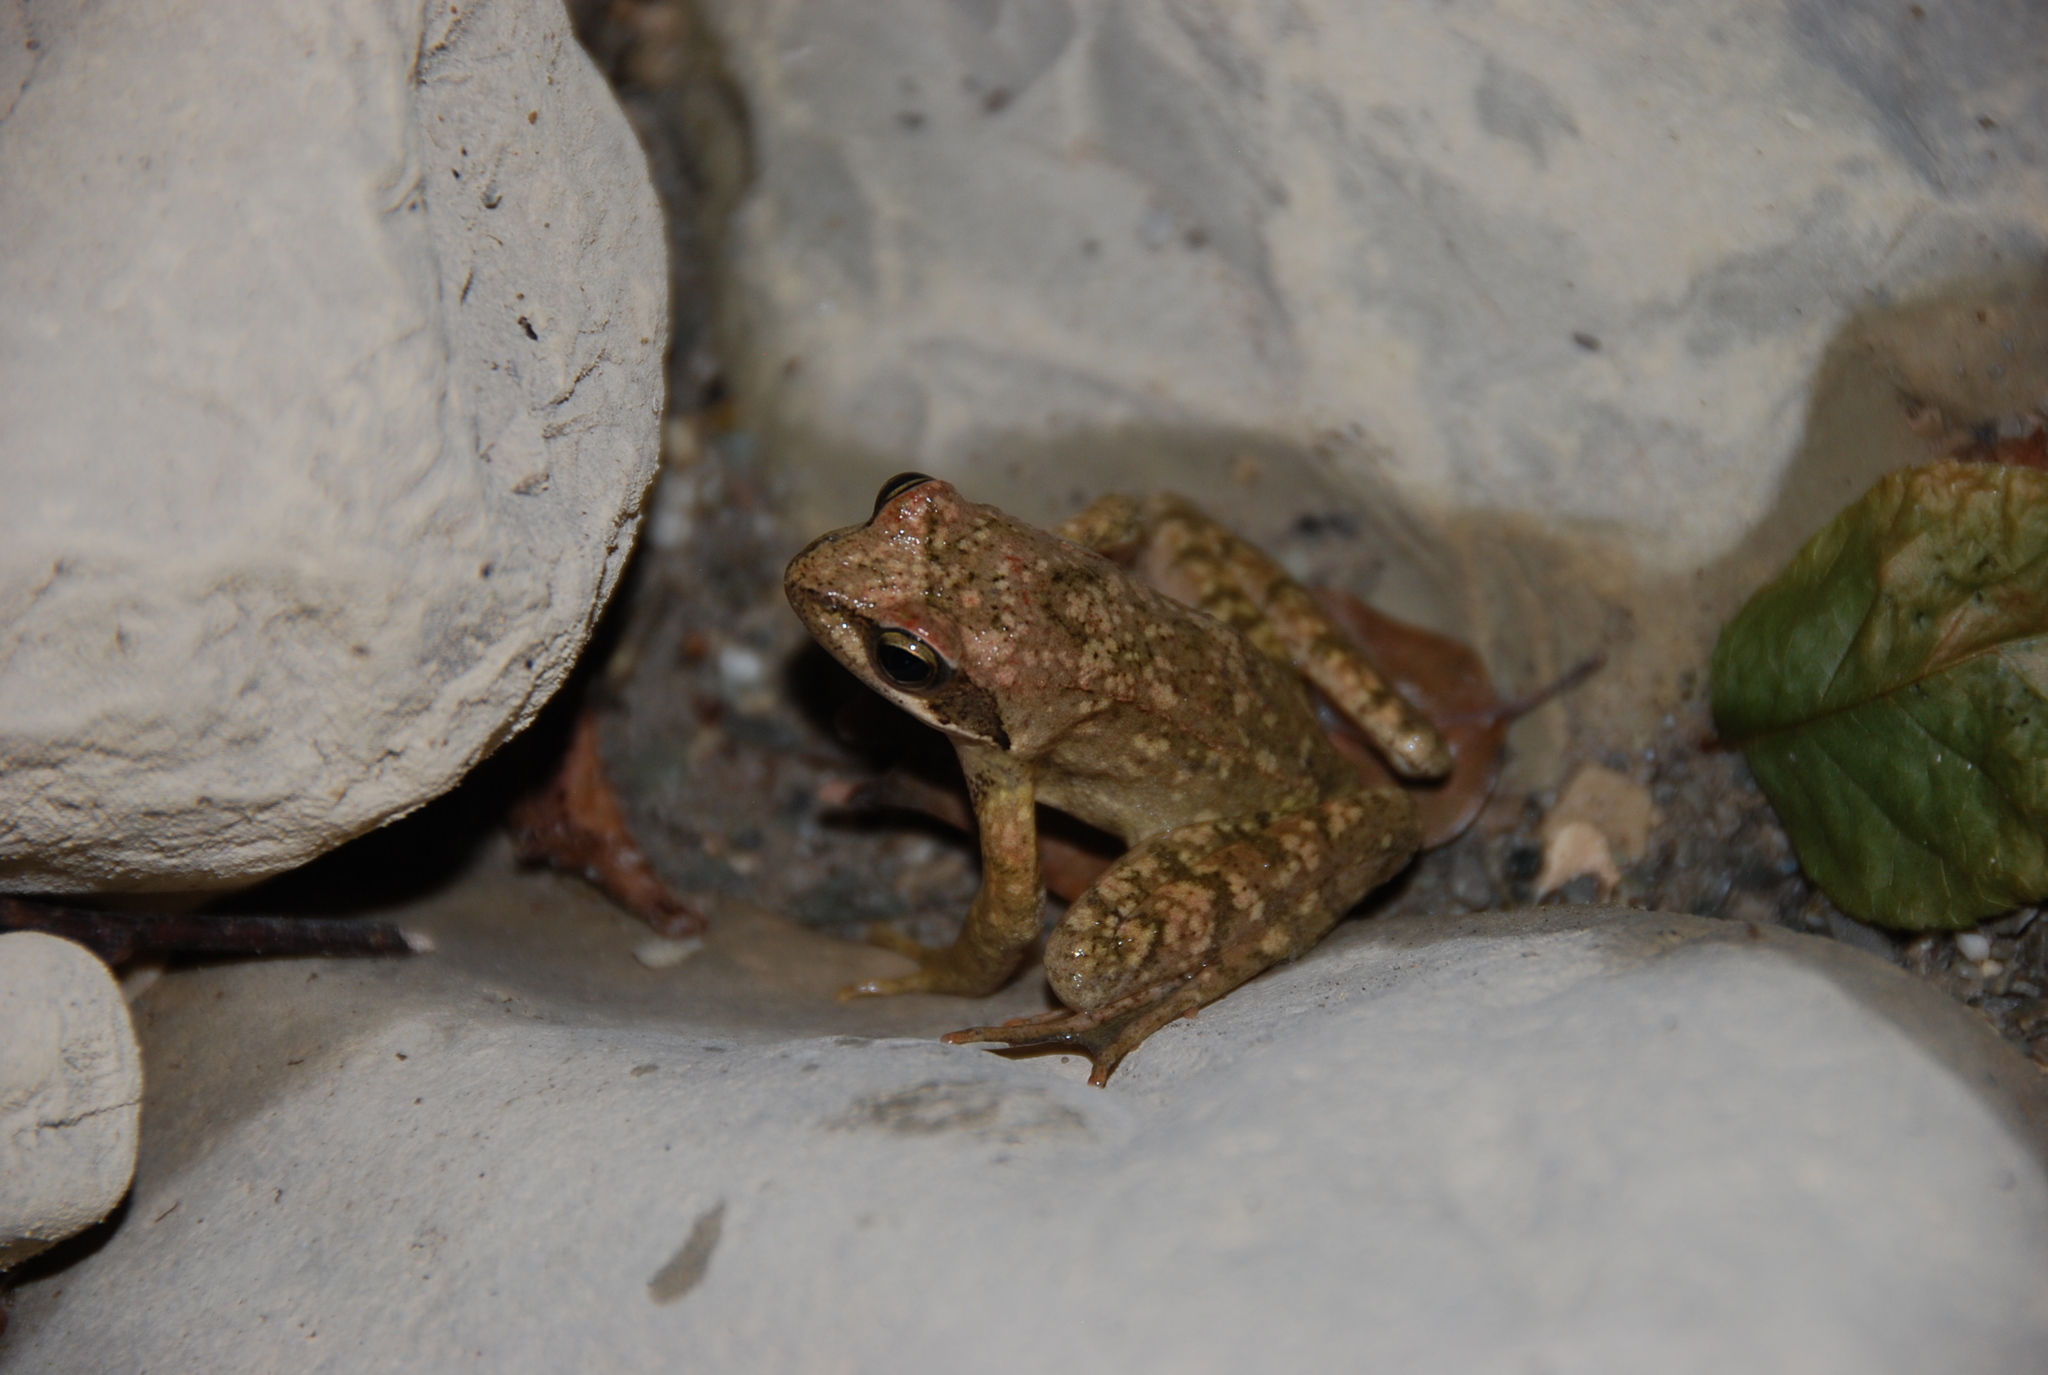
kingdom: Animalia
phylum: Chordata
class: Amphibia
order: Anura
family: Ranidae
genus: Rana
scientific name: Rana italica
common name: Italian stream frog
